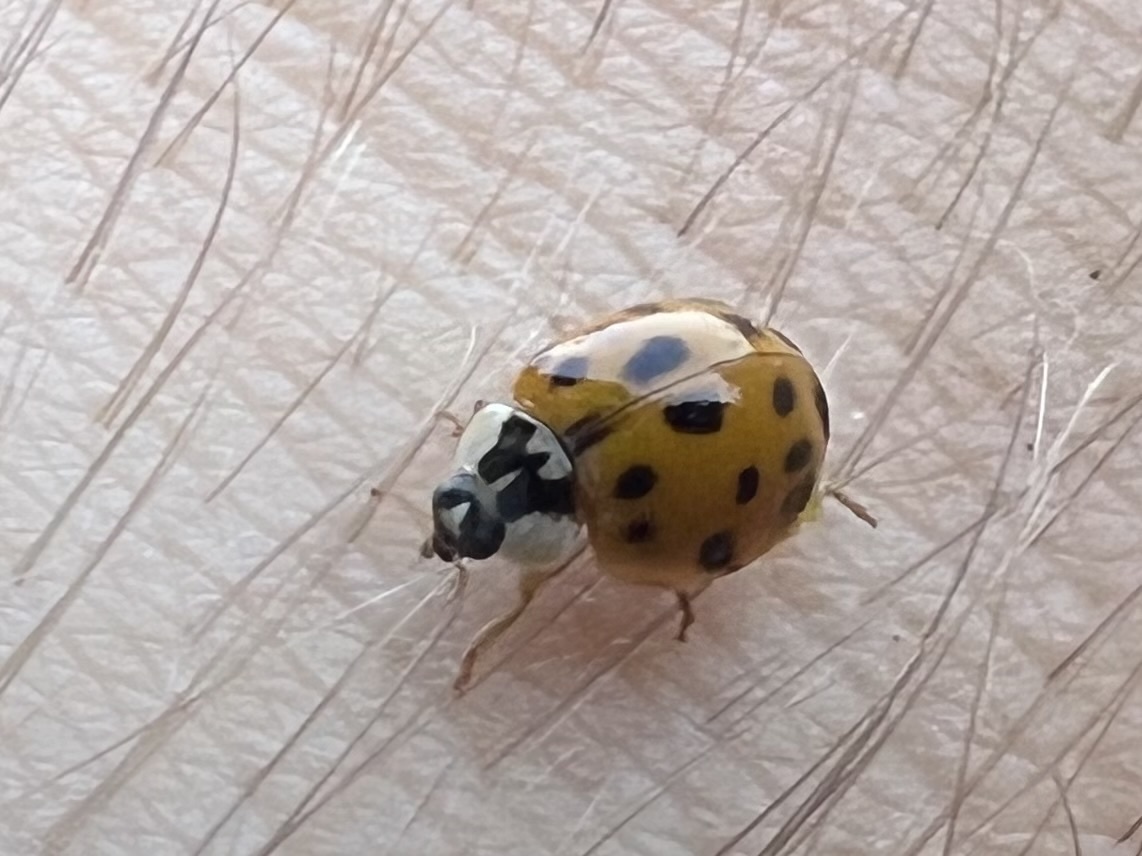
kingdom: Animalia
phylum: Arthropoda
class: Insecta
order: Coleoptera
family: Coccinellidae
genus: Harmonia
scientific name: Harmonia axyridis
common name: Harlequin ladybird
